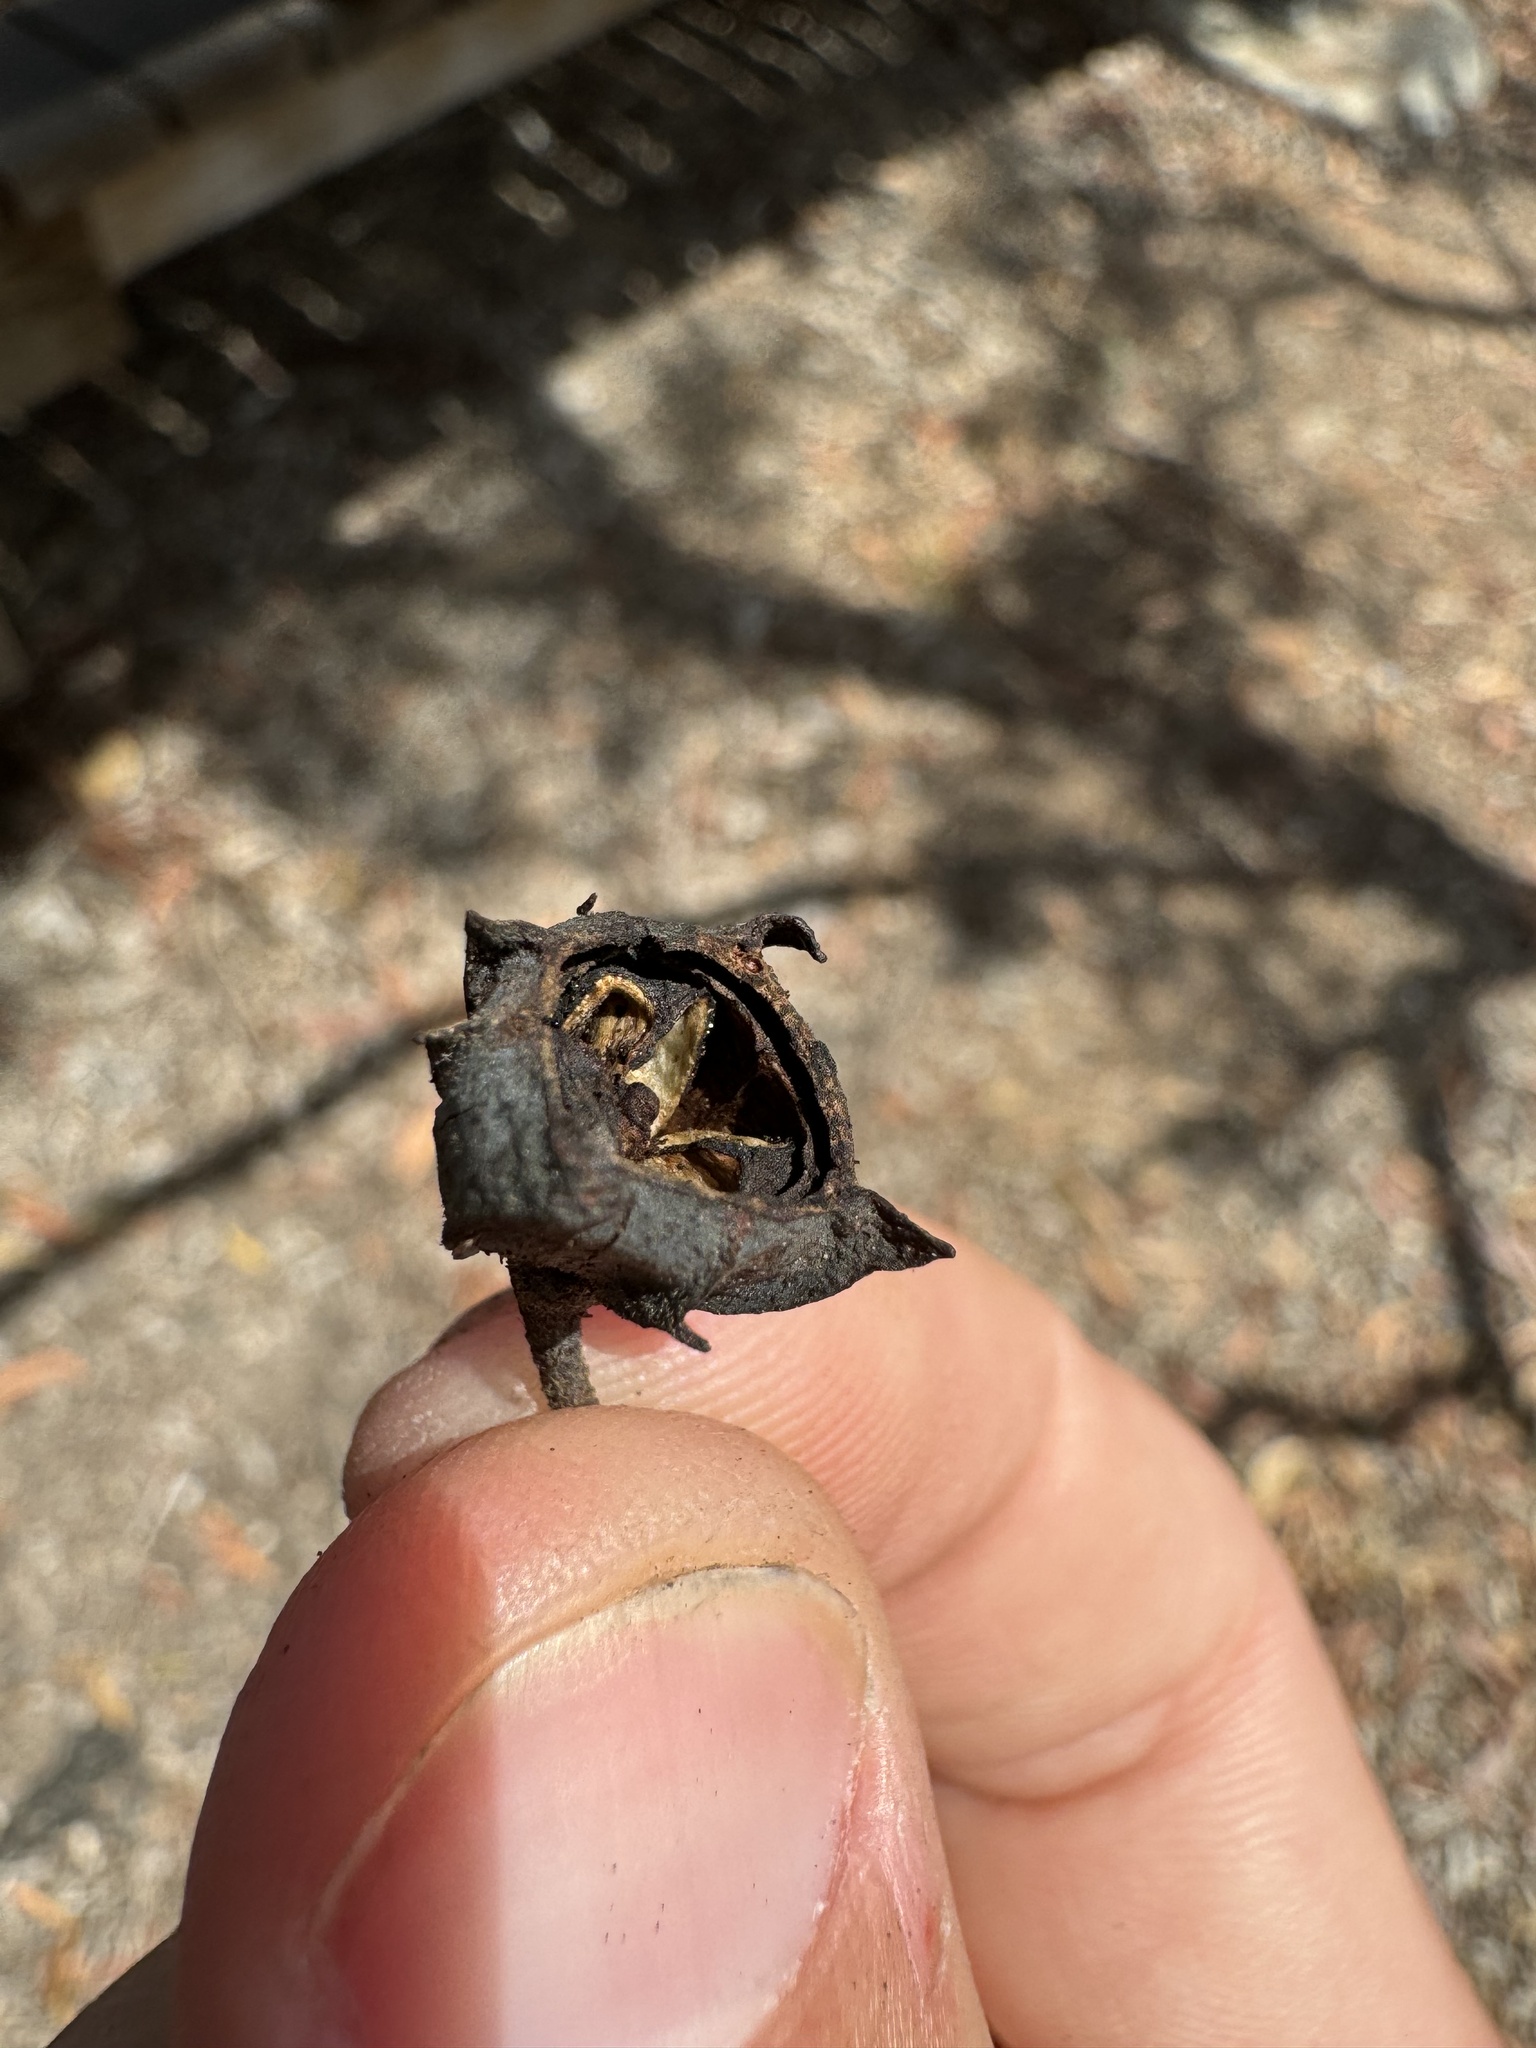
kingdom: Plantae
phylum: Tracheophyta
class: Magnoliopsida
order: Myrtales
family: Myrtaceae
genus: Angophora
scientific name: Angophora woodsiana
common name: Smudgy apple
